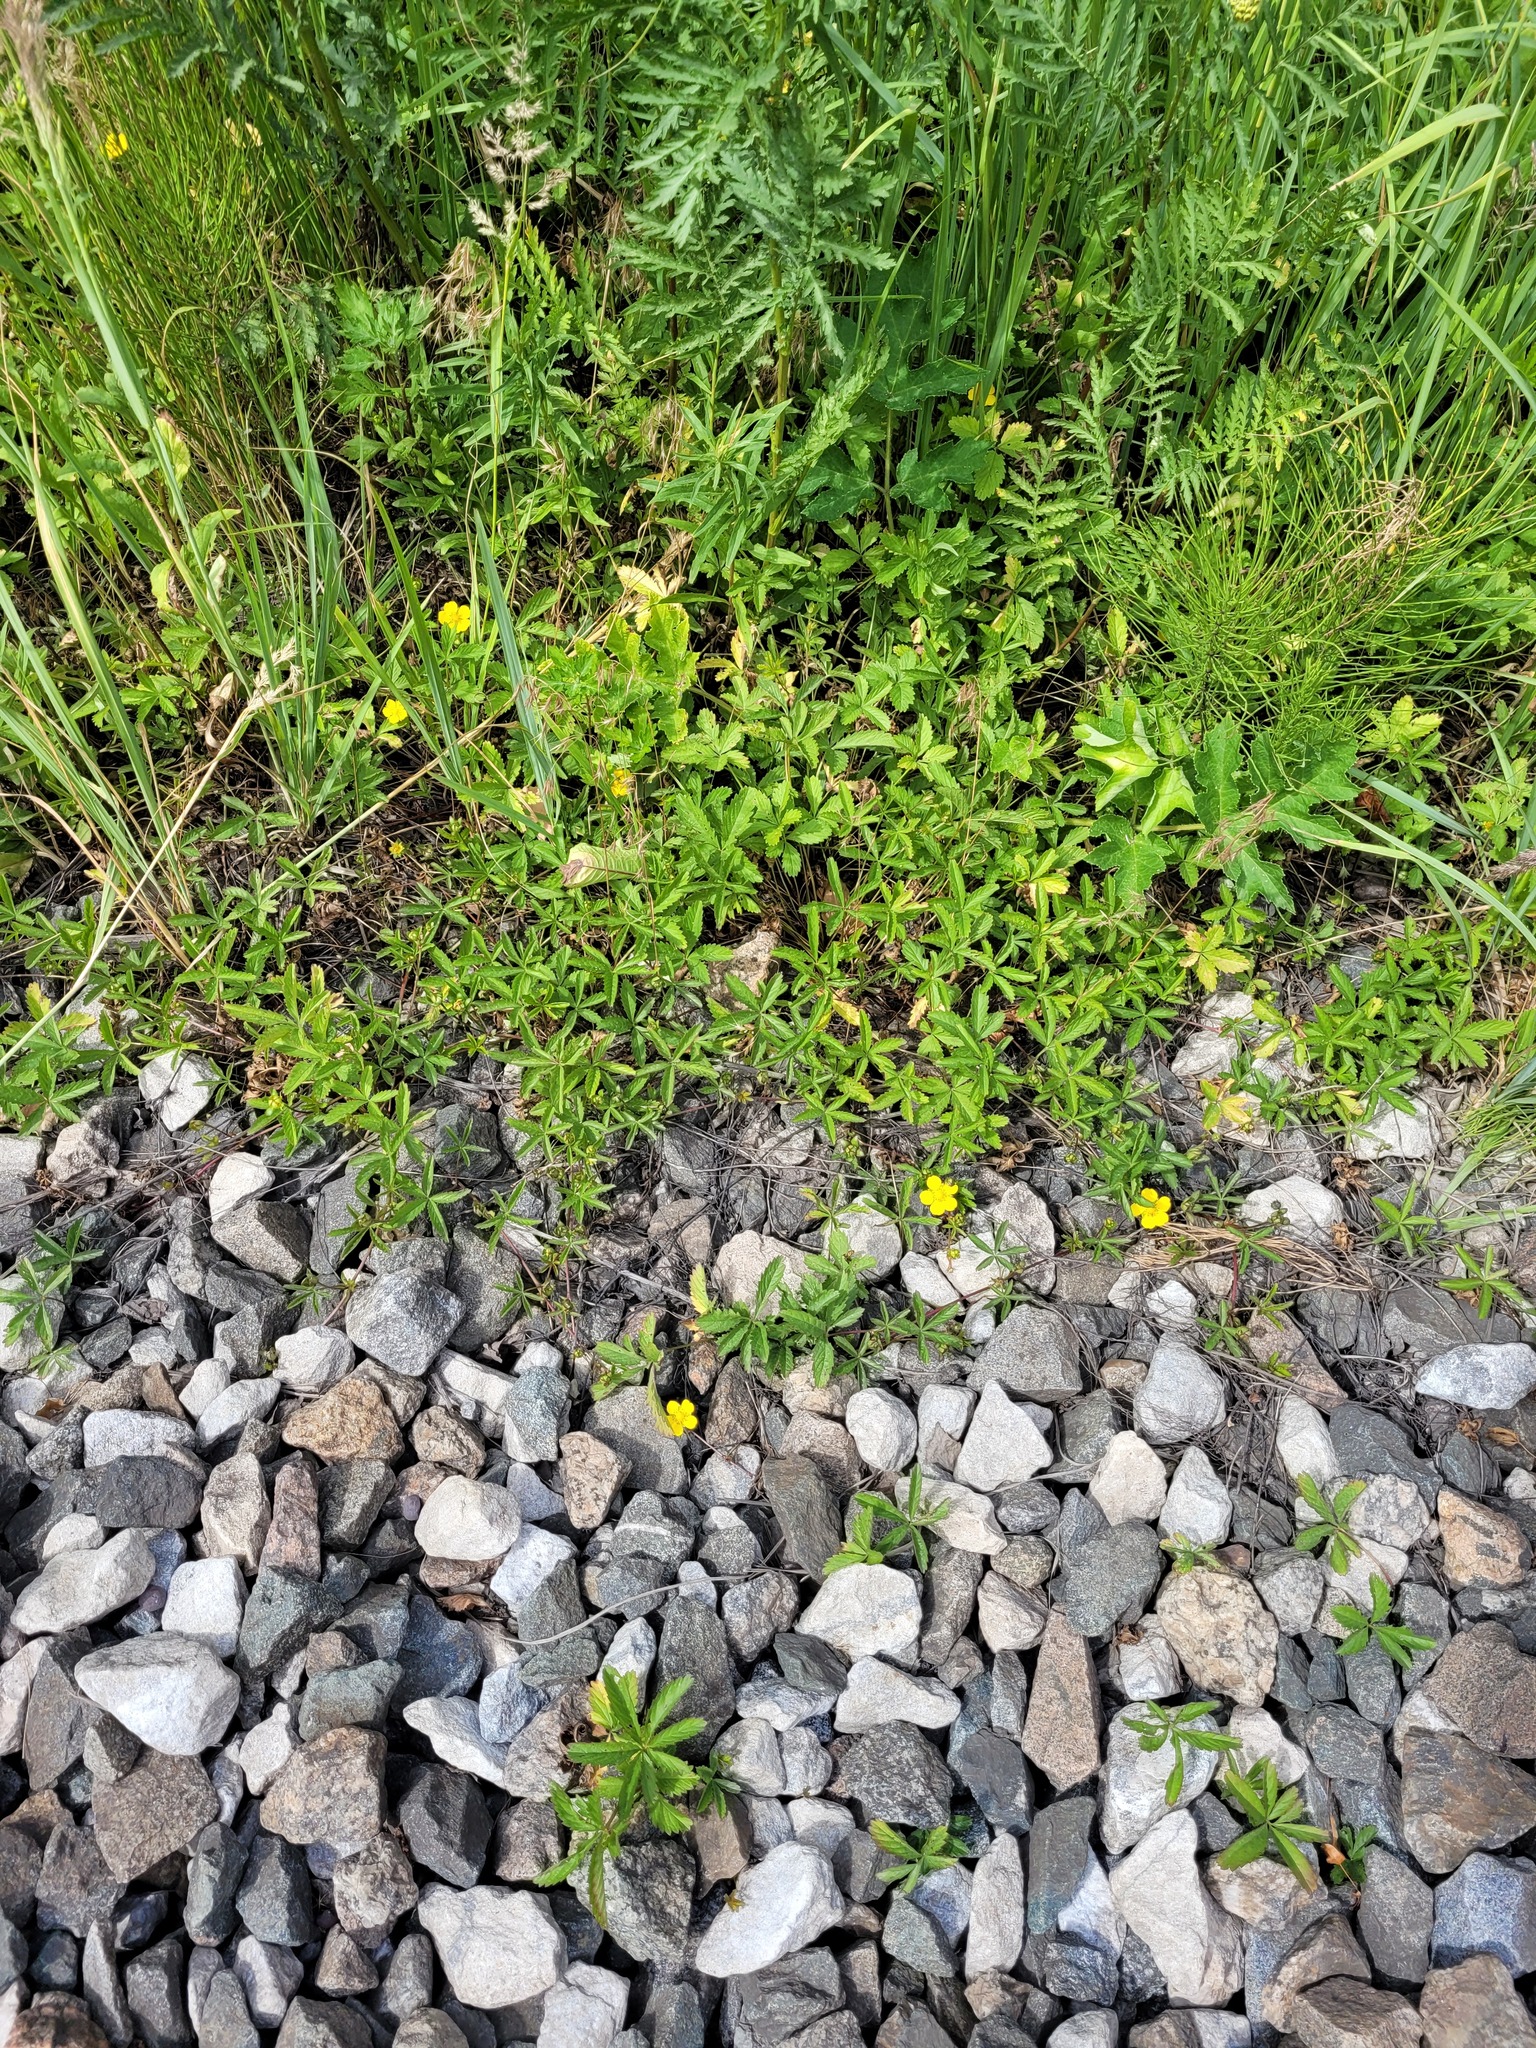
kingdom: Plantae
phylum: Tracheophyta
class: Magnoliopsida
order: Rosales
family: Rosaceae
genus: Potentilla
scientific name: Potentilla reptans
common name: Creeping cinquefoil
